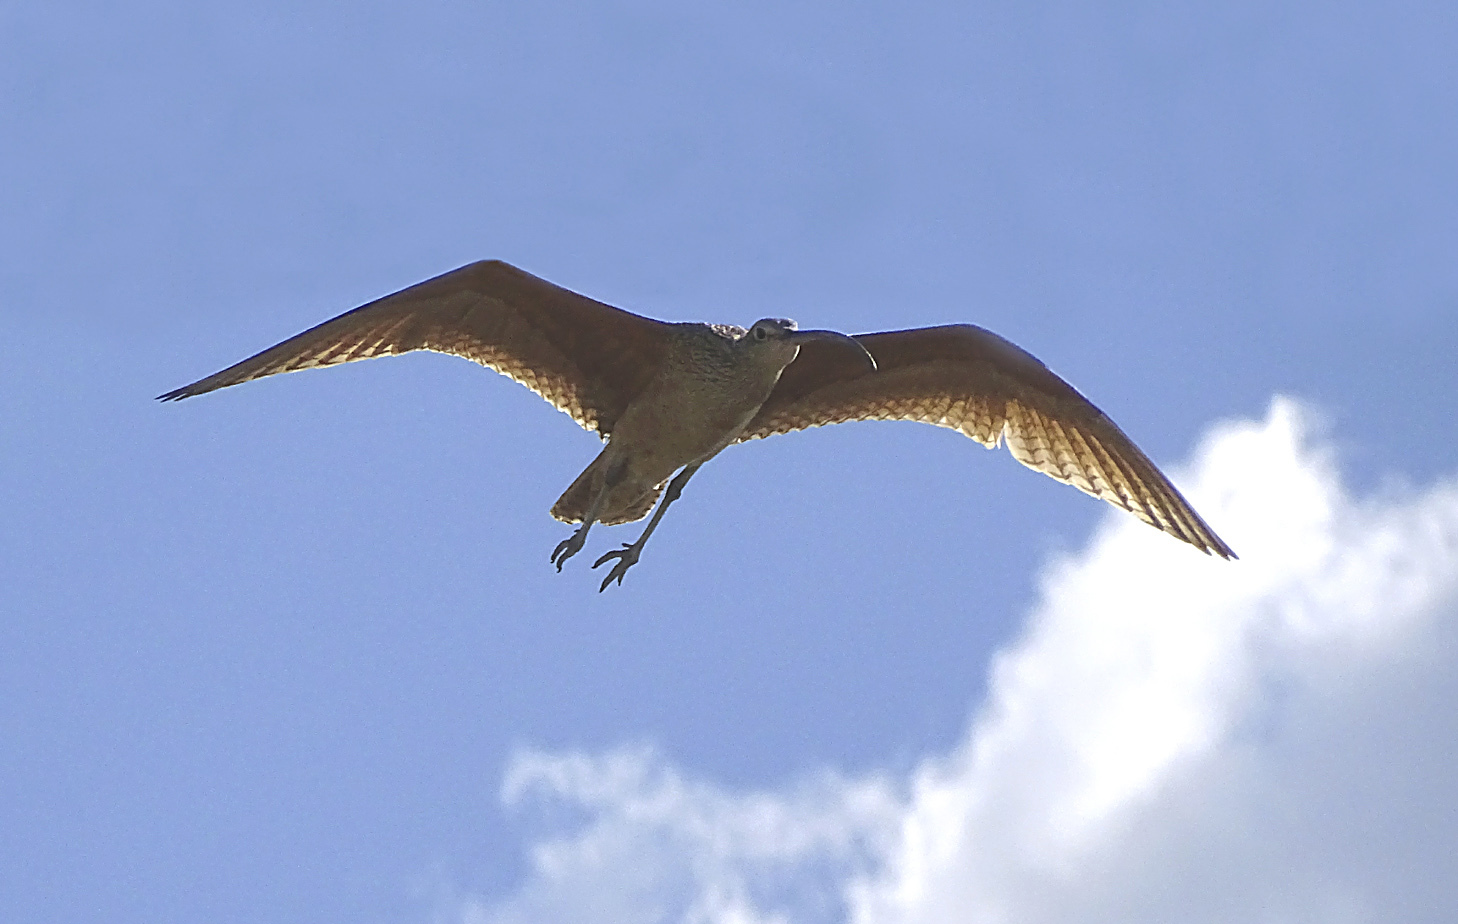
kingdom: Animalia
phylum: Chordata
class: Aves
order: Charadriiformes
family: Scolopacidae
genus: Numenius
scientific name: Numenius americanus
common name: Long-billed curlew
